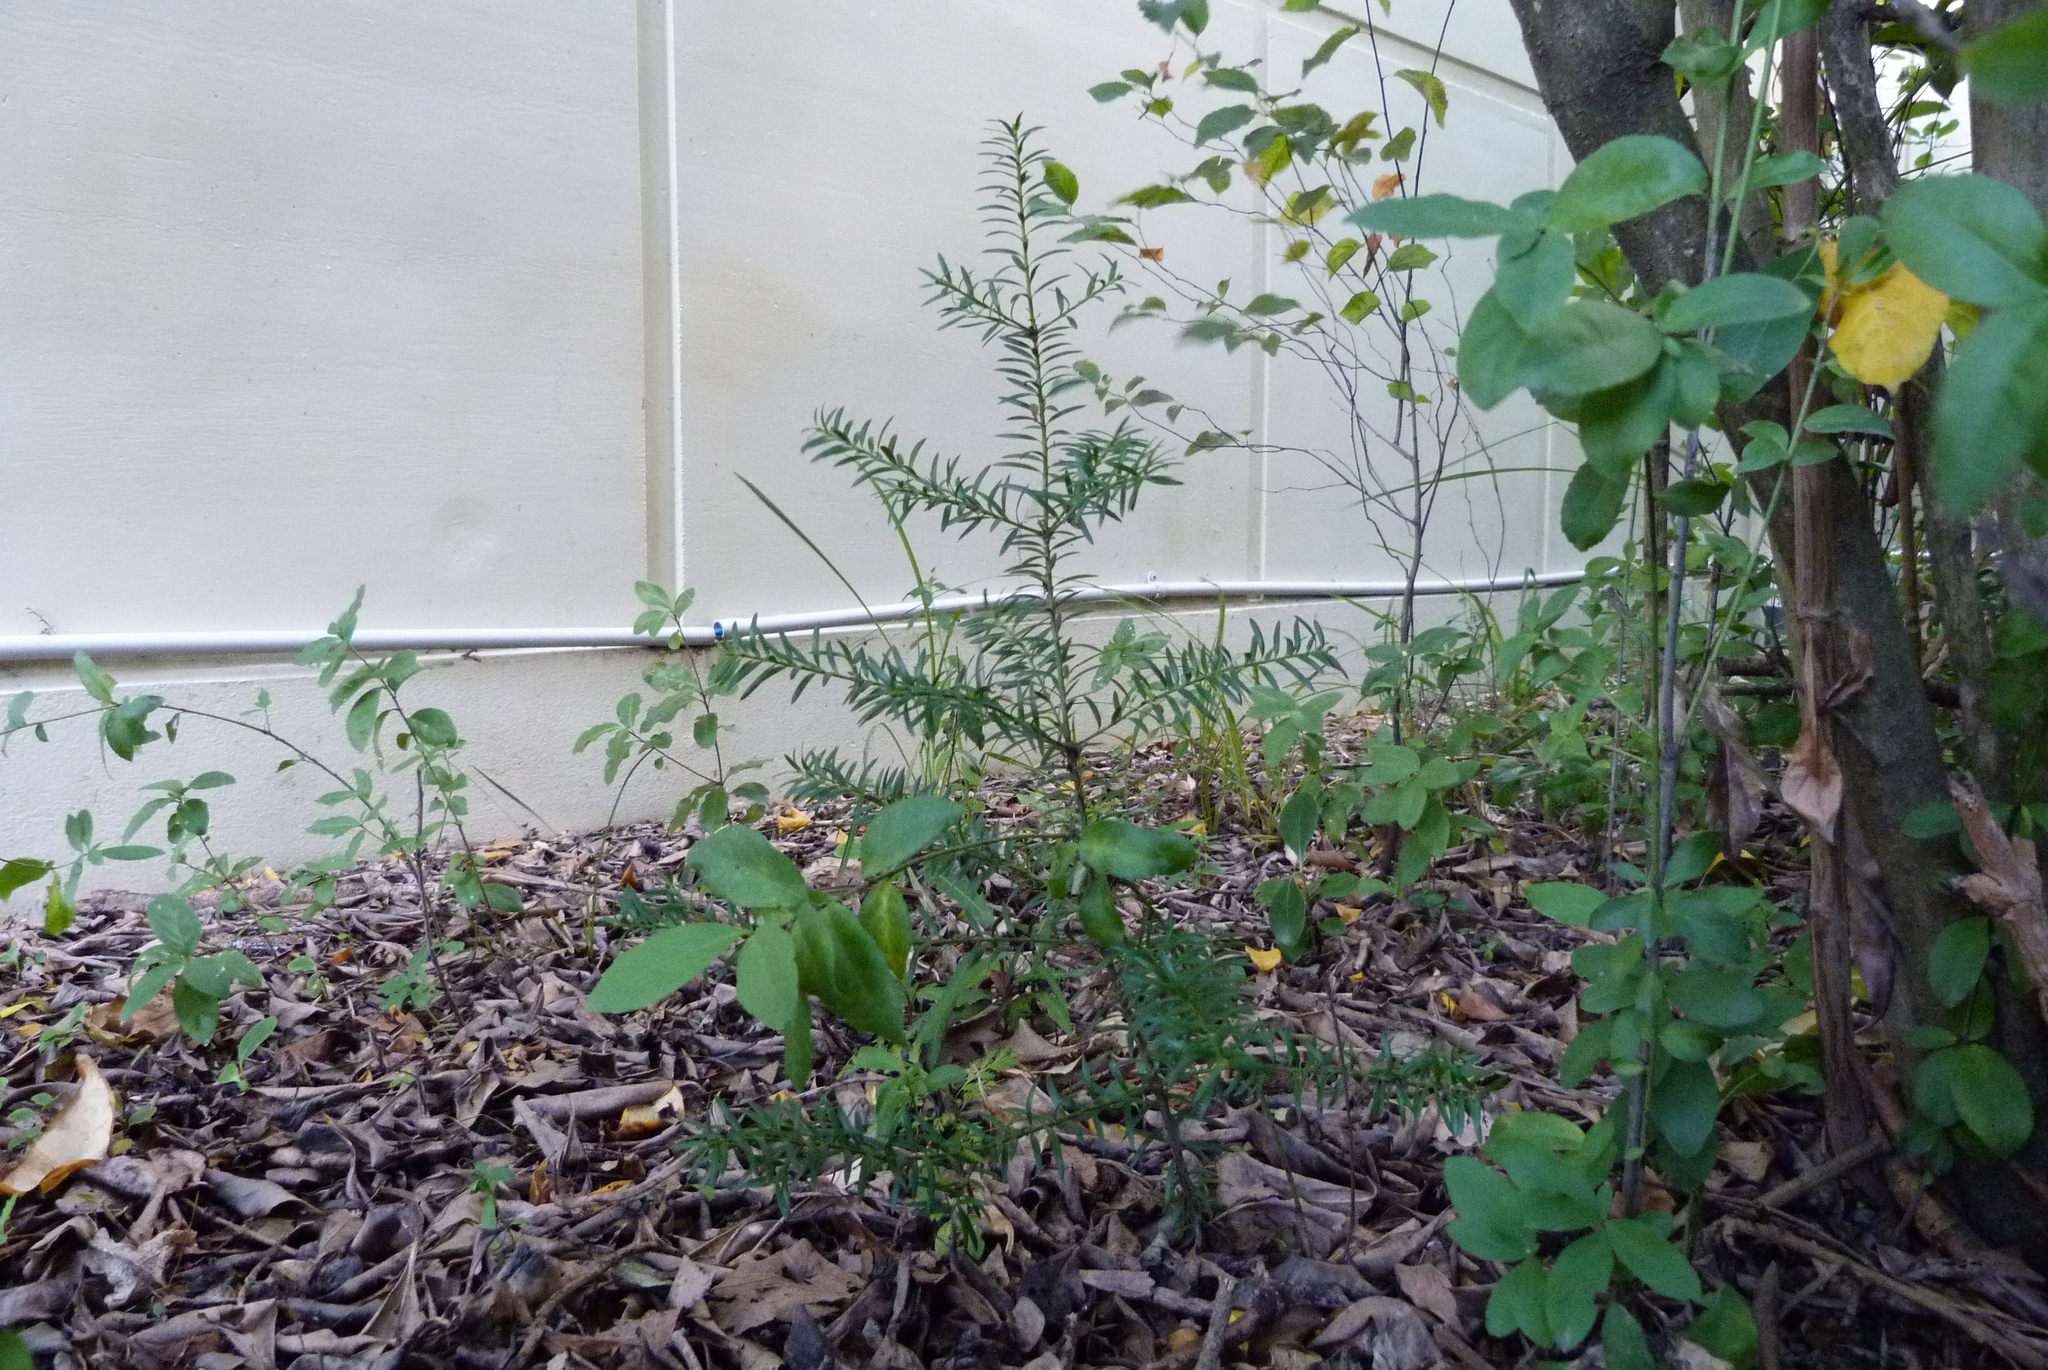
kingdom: Plantae
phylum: Tracheophyta
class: Pinopsida
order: Pinales
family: Podocarpaceae
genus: Podocarpus
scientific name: Podocarpus totara
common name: Totara
